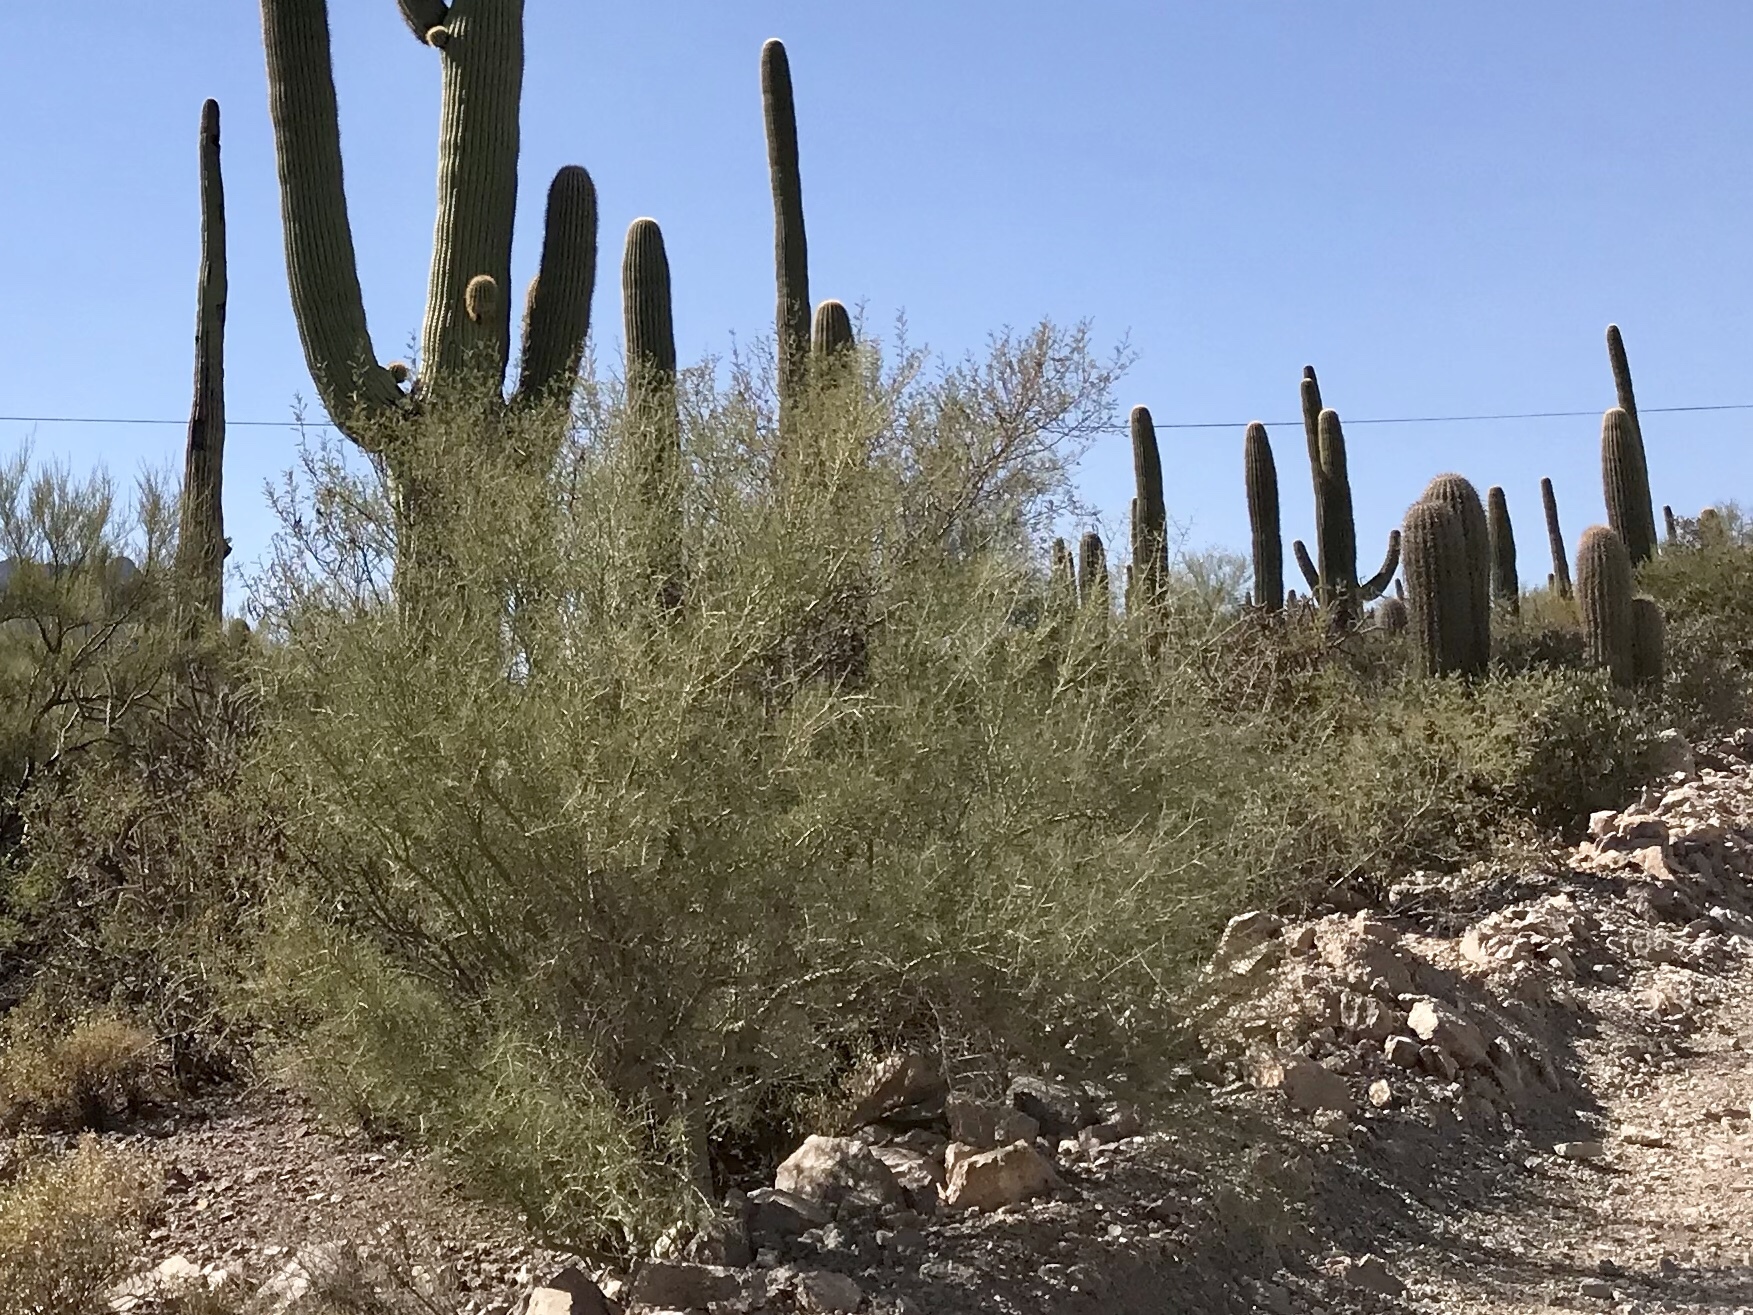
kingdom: Plantae
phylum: Tracheophyta
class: Magnoliopsida
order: Fabales
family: Fabaceae
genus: Parkinsonia
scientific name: Parkinsonia microphylla
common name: Yellow paloverde
